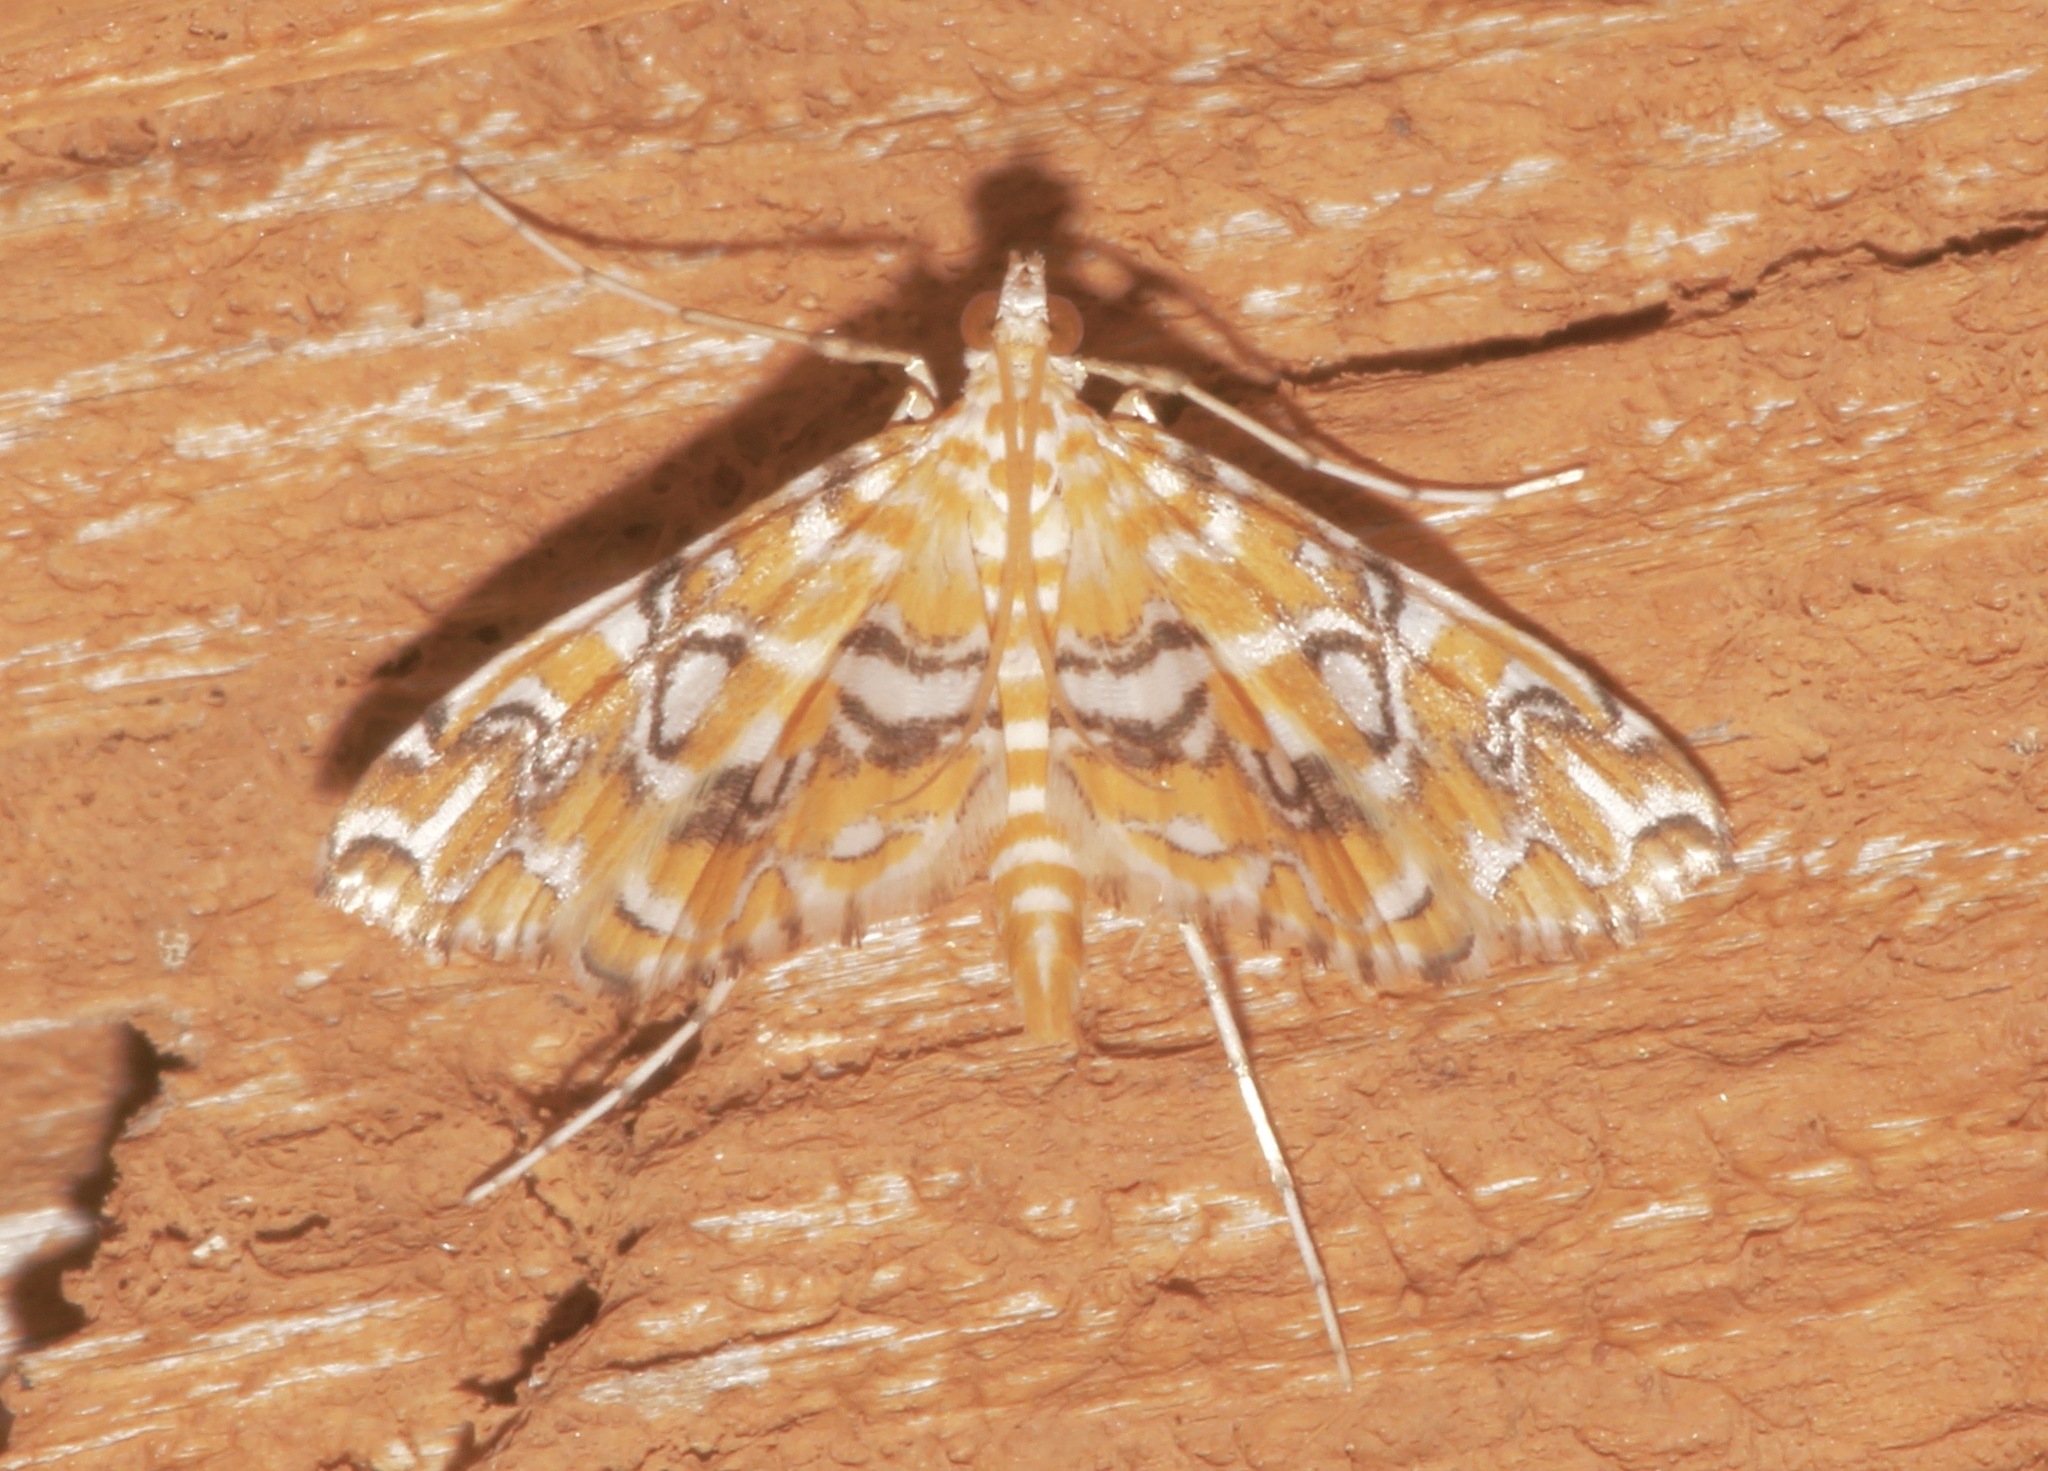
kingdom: Animalia
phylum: Arthropoda
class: Insecta
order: Lepidoptera
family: Crambidae
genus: Elophila
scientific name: Elophila icciusalis
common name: Pondside pyralid moth
